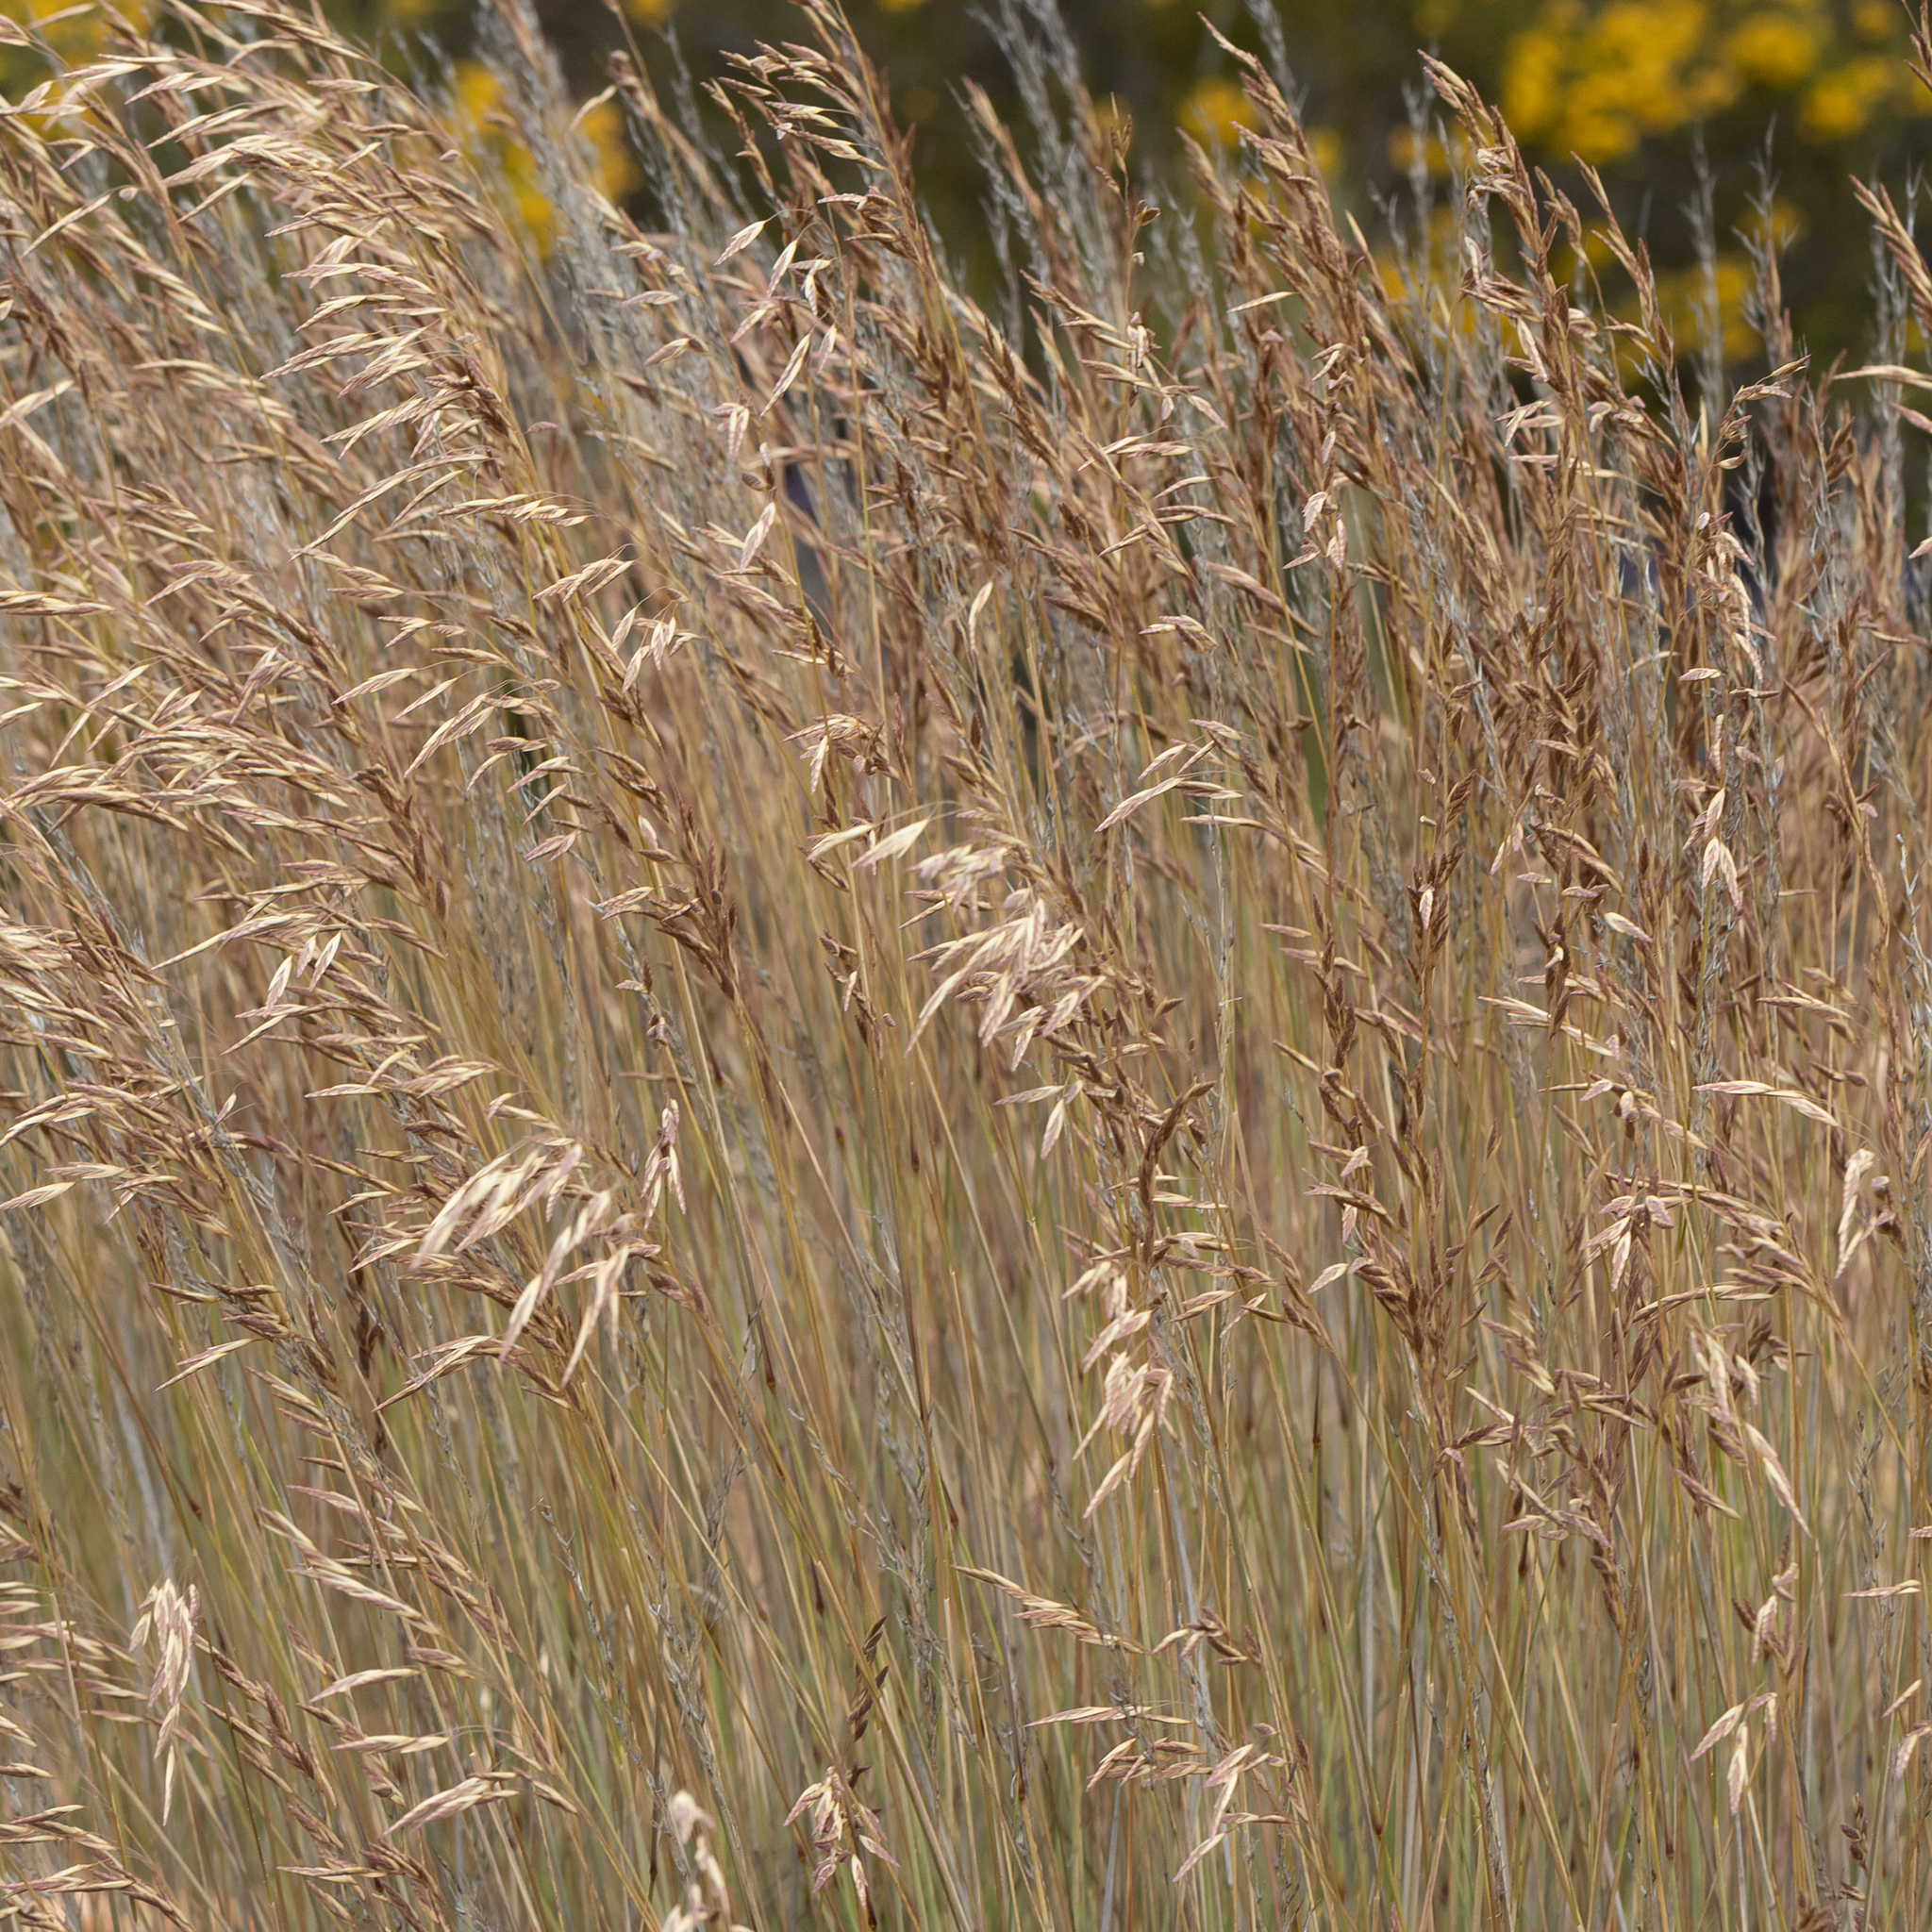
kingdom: Plantae
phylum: Tracheophyta
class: Liliopsida
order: Poales
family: Poaceae
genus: Triodia
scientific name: Triodia scariosa
